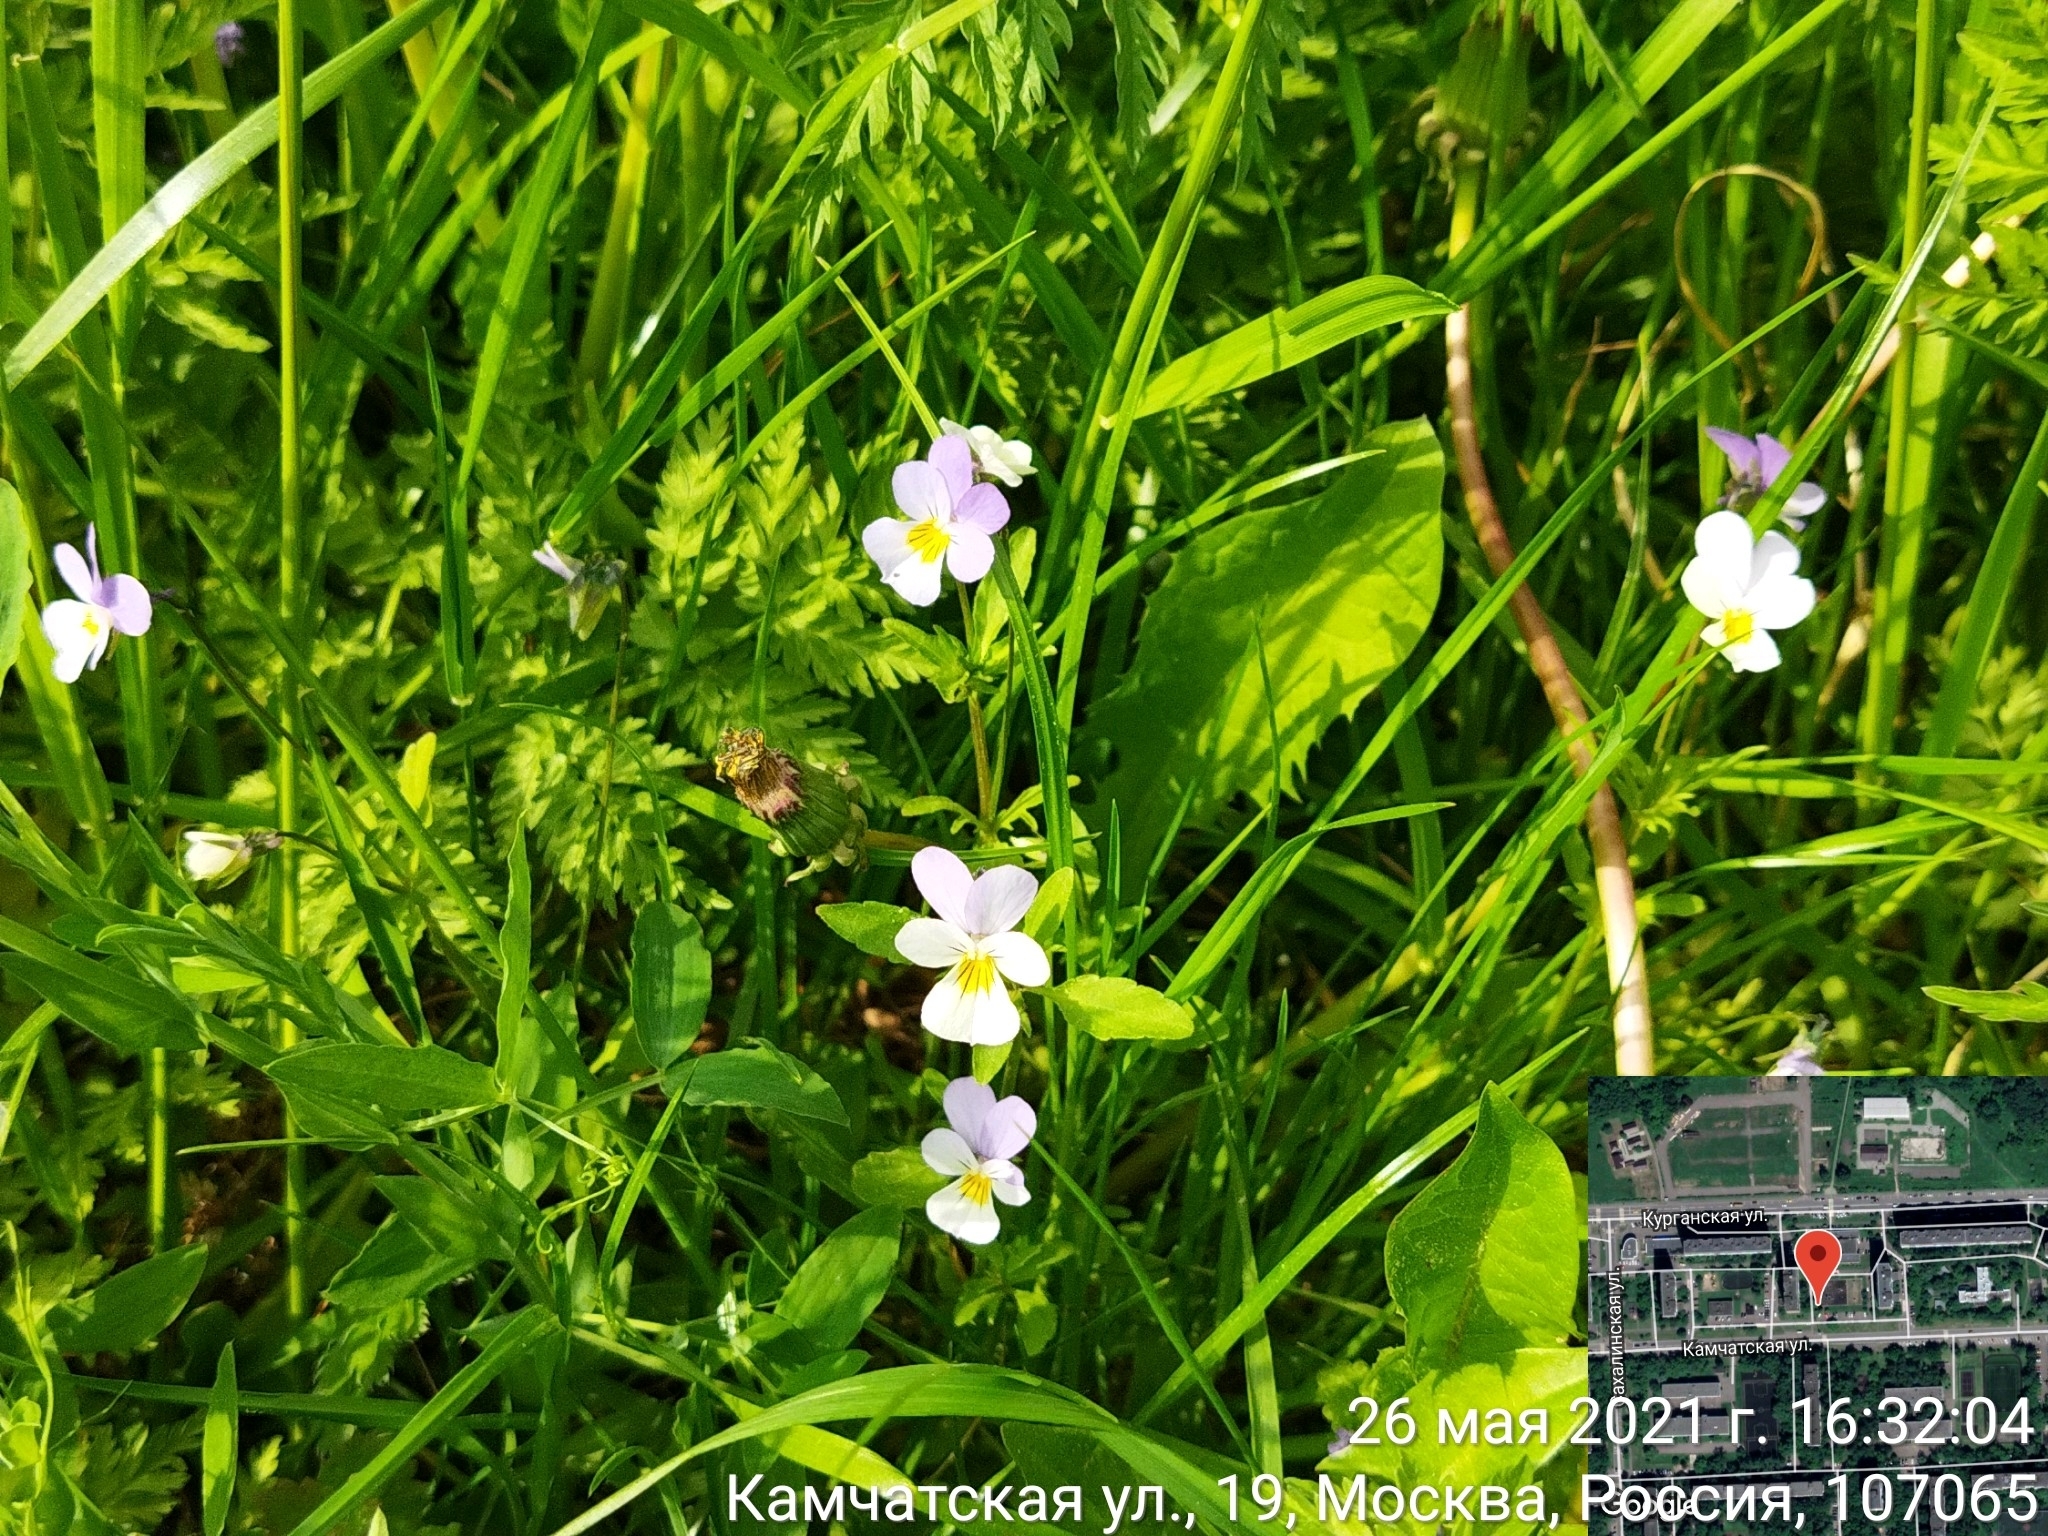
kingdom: Plantae
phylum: Tracheophyta
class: Magnoliopsida
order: Malpighiales
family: Violaceae
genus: Viola
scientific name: Viola tricolor
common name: Pansy
